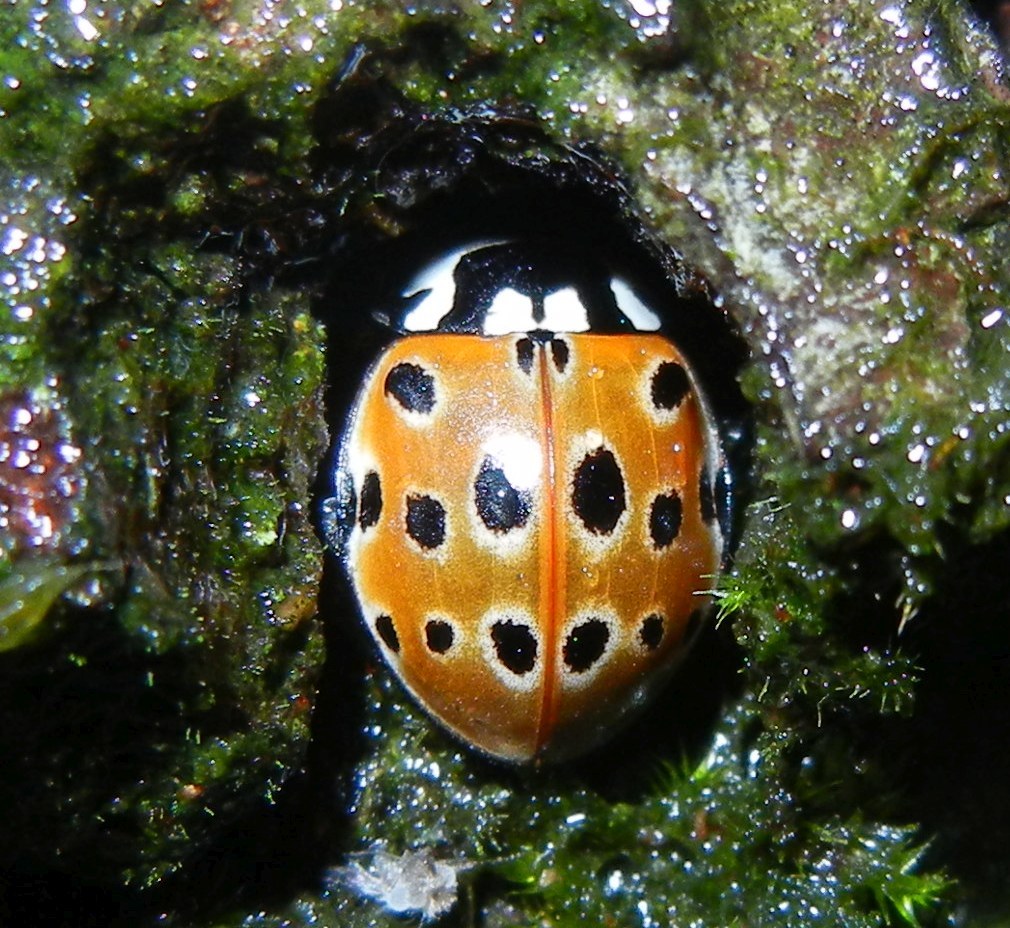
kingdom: Animalia
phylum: Arthropoda
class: Insecta
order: Coleoptera
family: Coccinellidae
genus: Anatis
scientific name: Anatis ocellata
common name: Eyed ladybird
